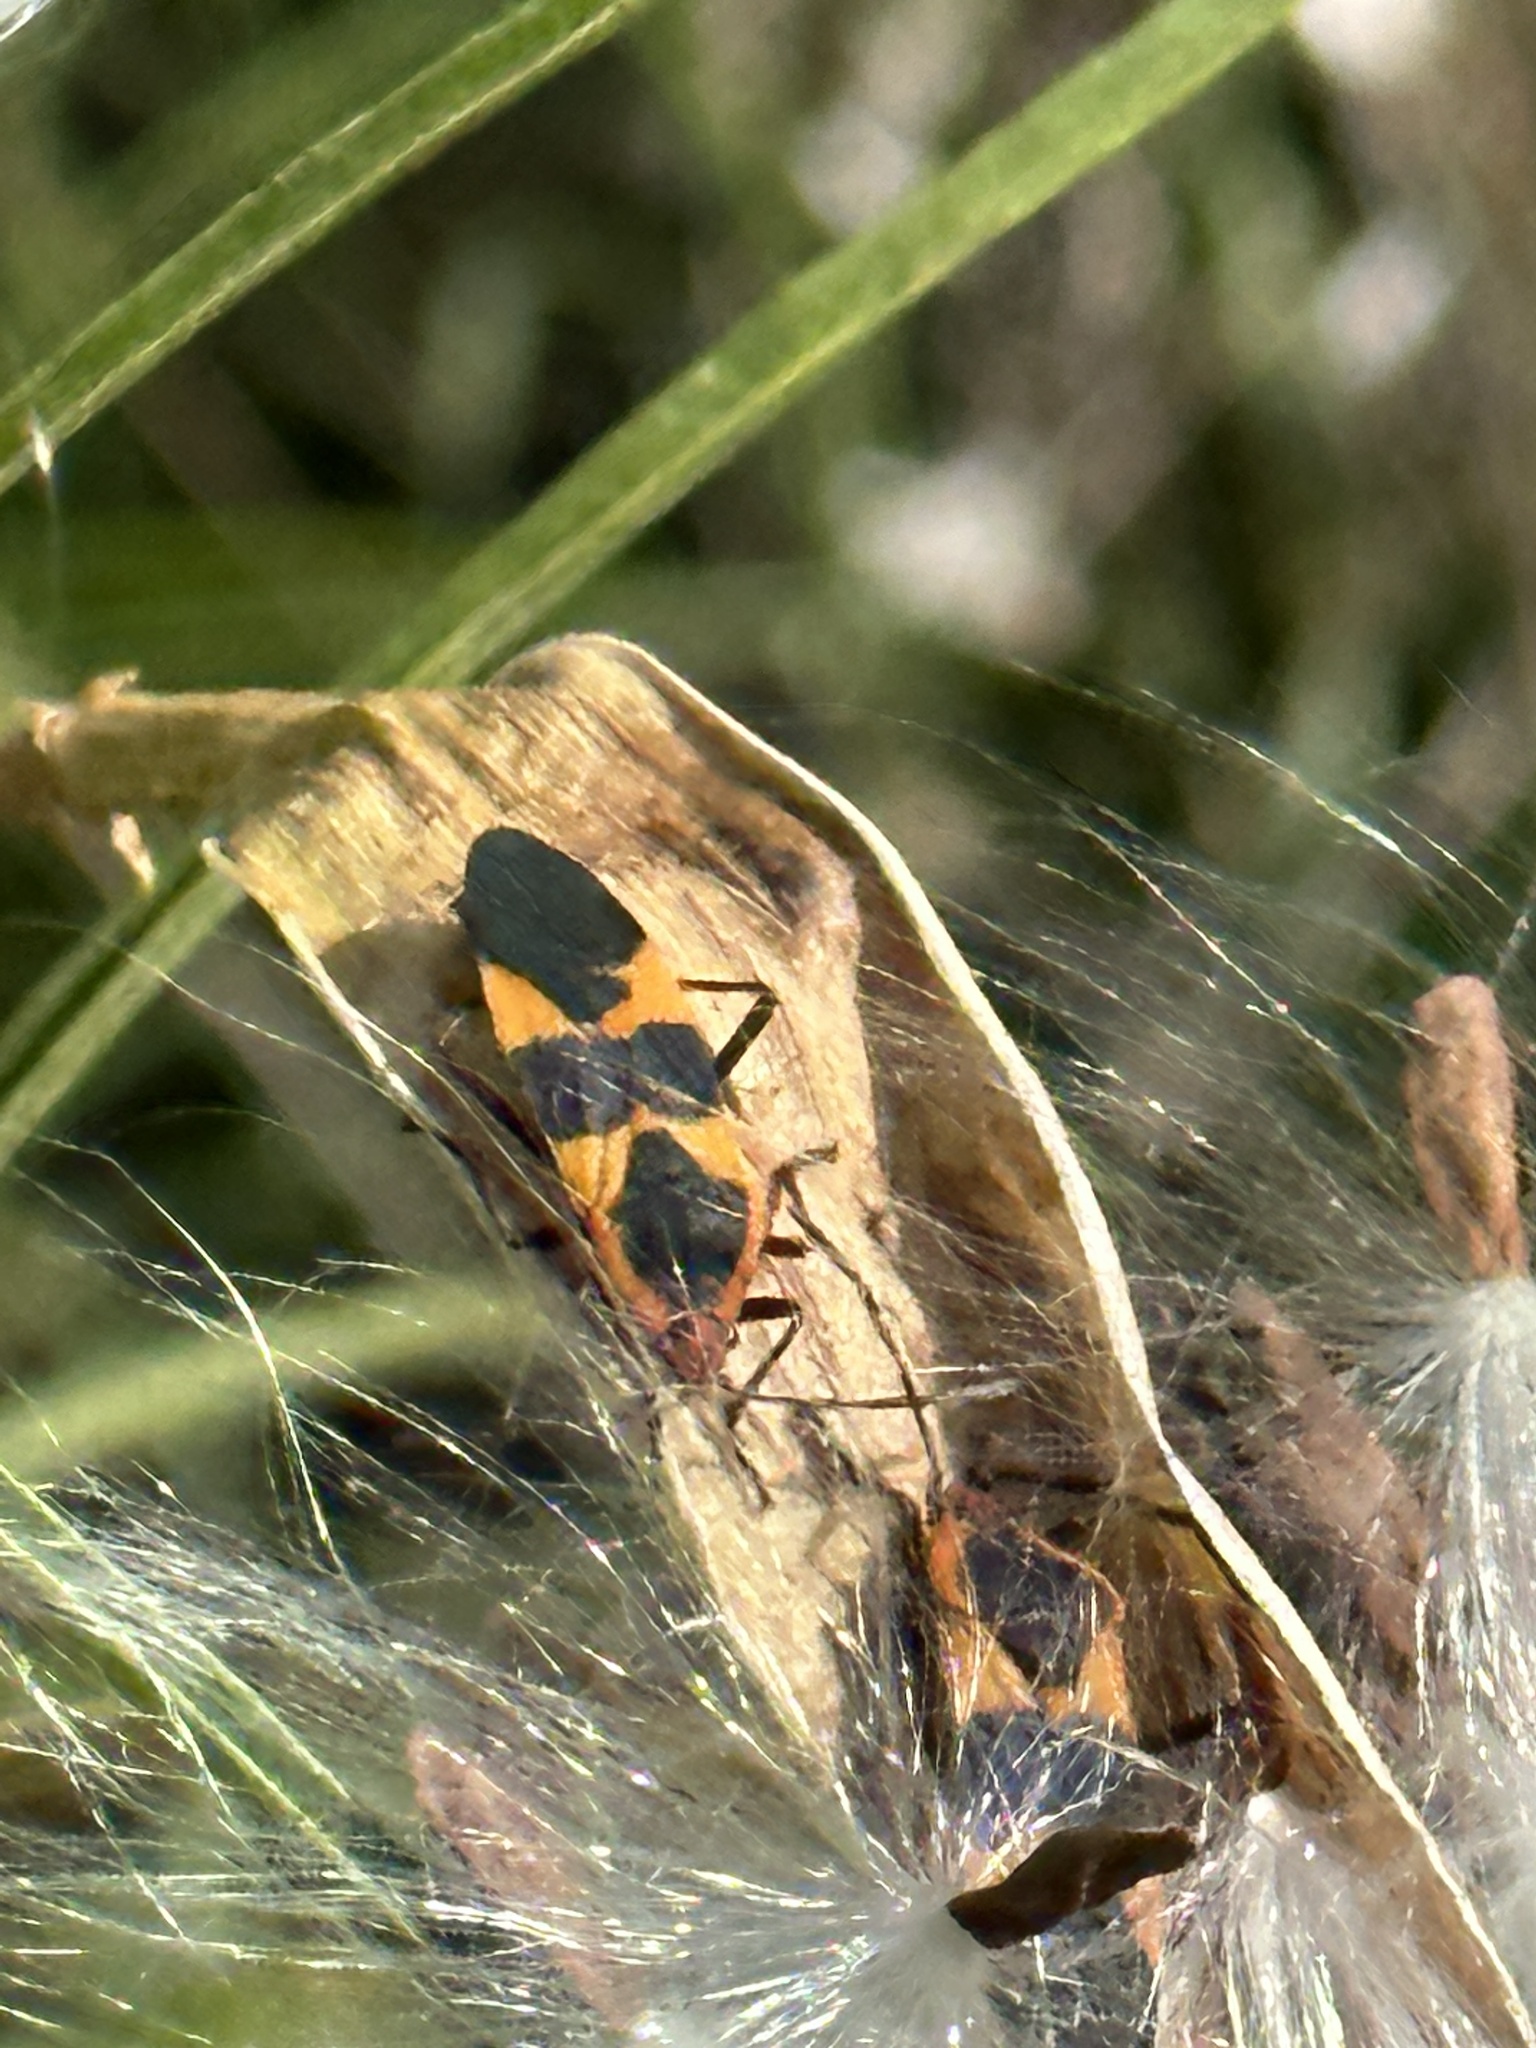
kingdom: Animalia
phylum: Arthropoda
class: Insecta
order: Hemiptera
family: Lygaeidae
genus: Oncopeltus
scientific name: Oncopeltus fasciatus
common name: Large milkweed bug
